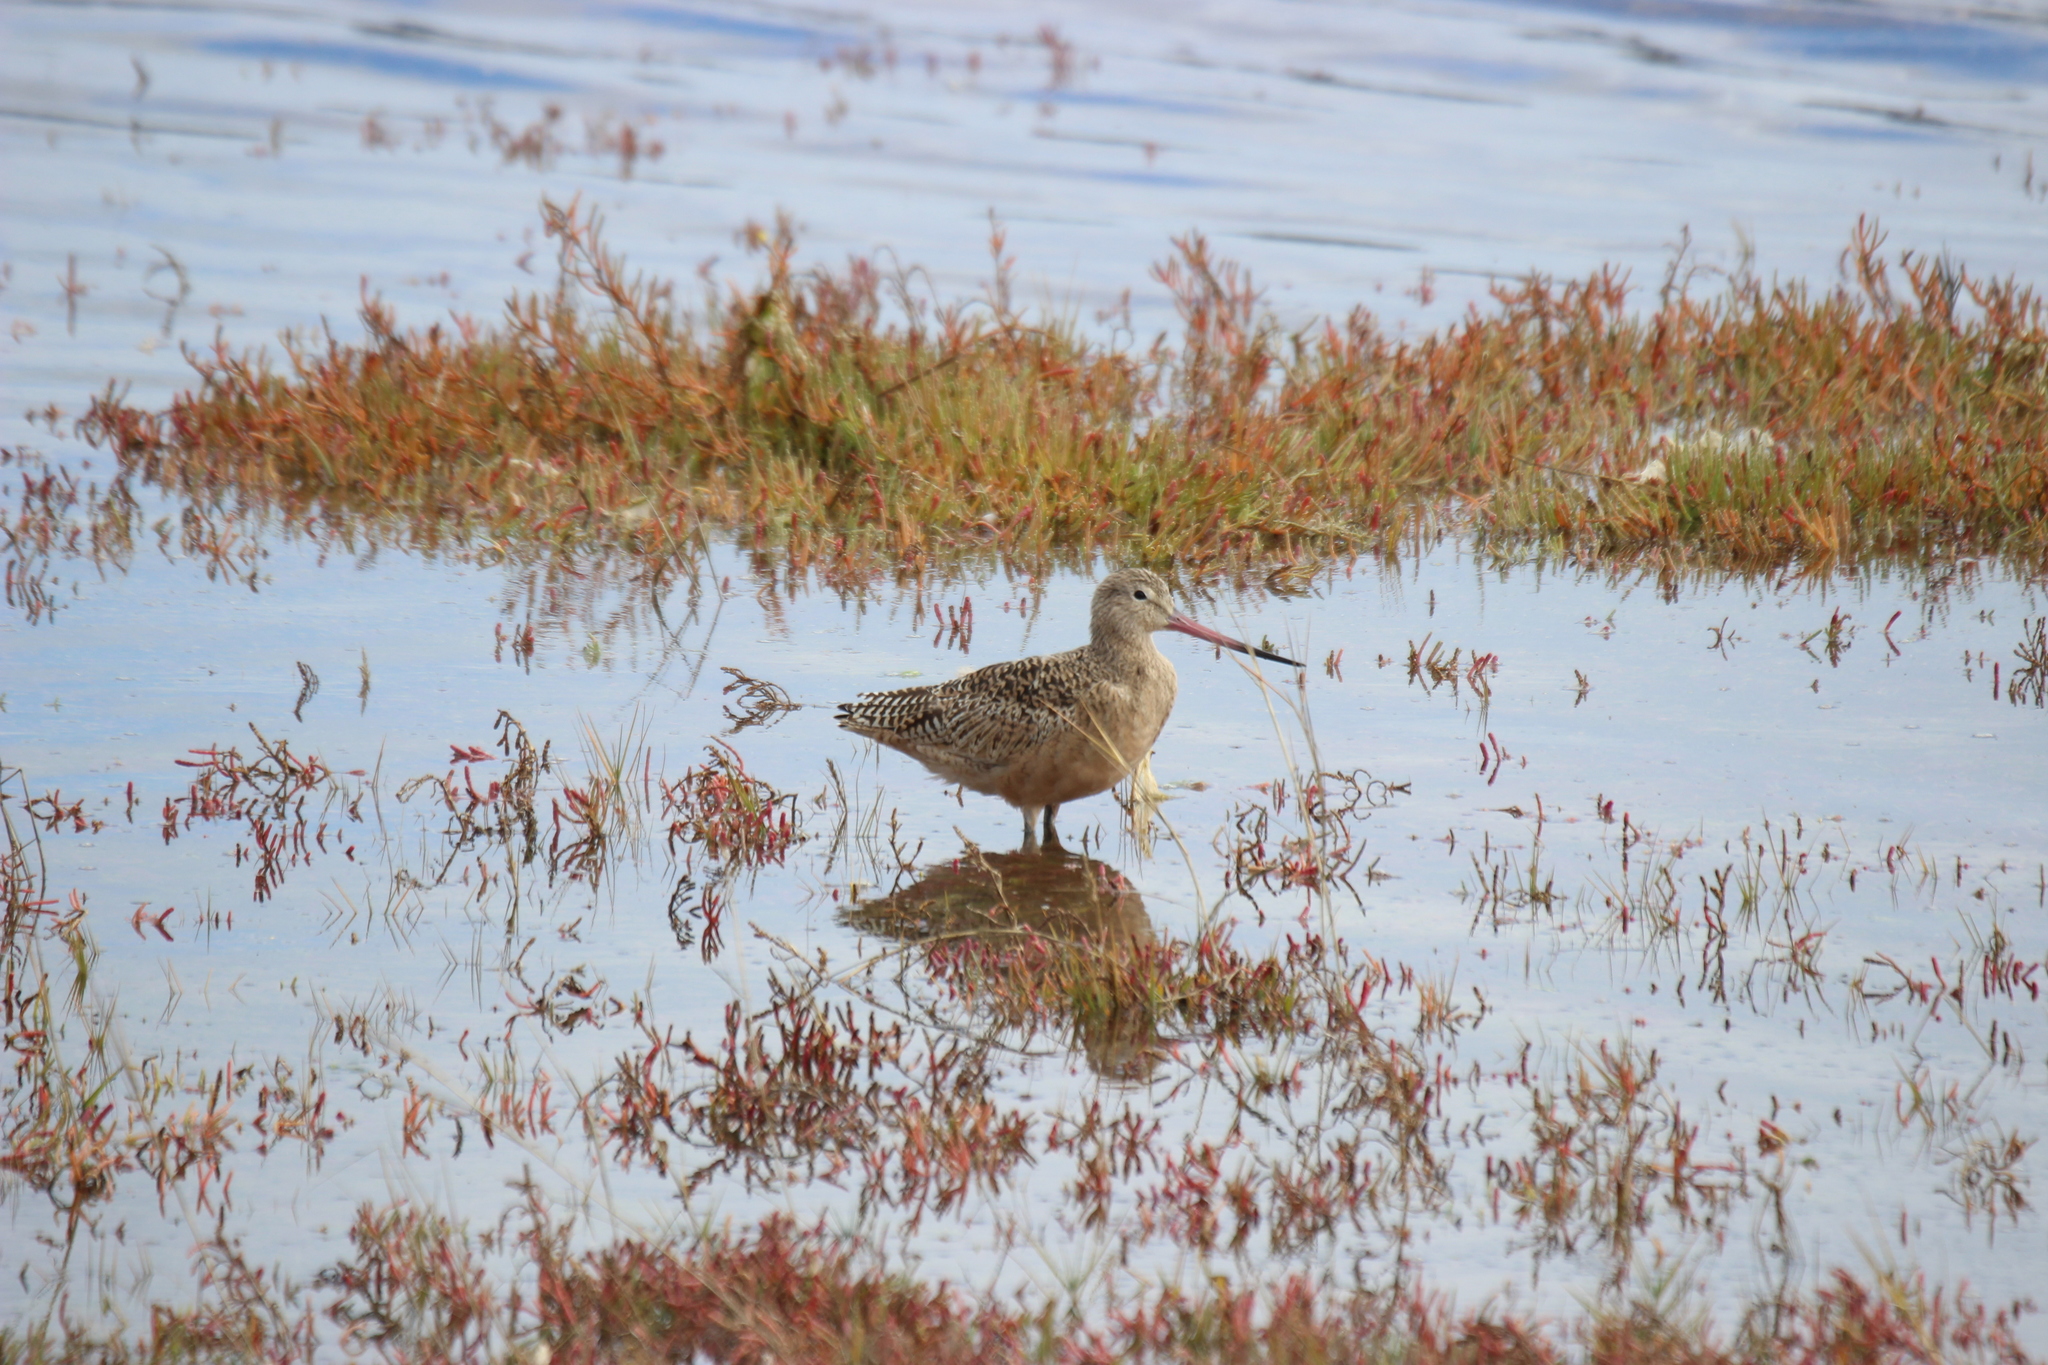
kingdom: Animalia
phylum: Chordata
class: Aves
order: Charadriiformes
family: Scolopacidae
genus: Limosa
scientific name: Limosa fedoa
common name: Marbled godwit
